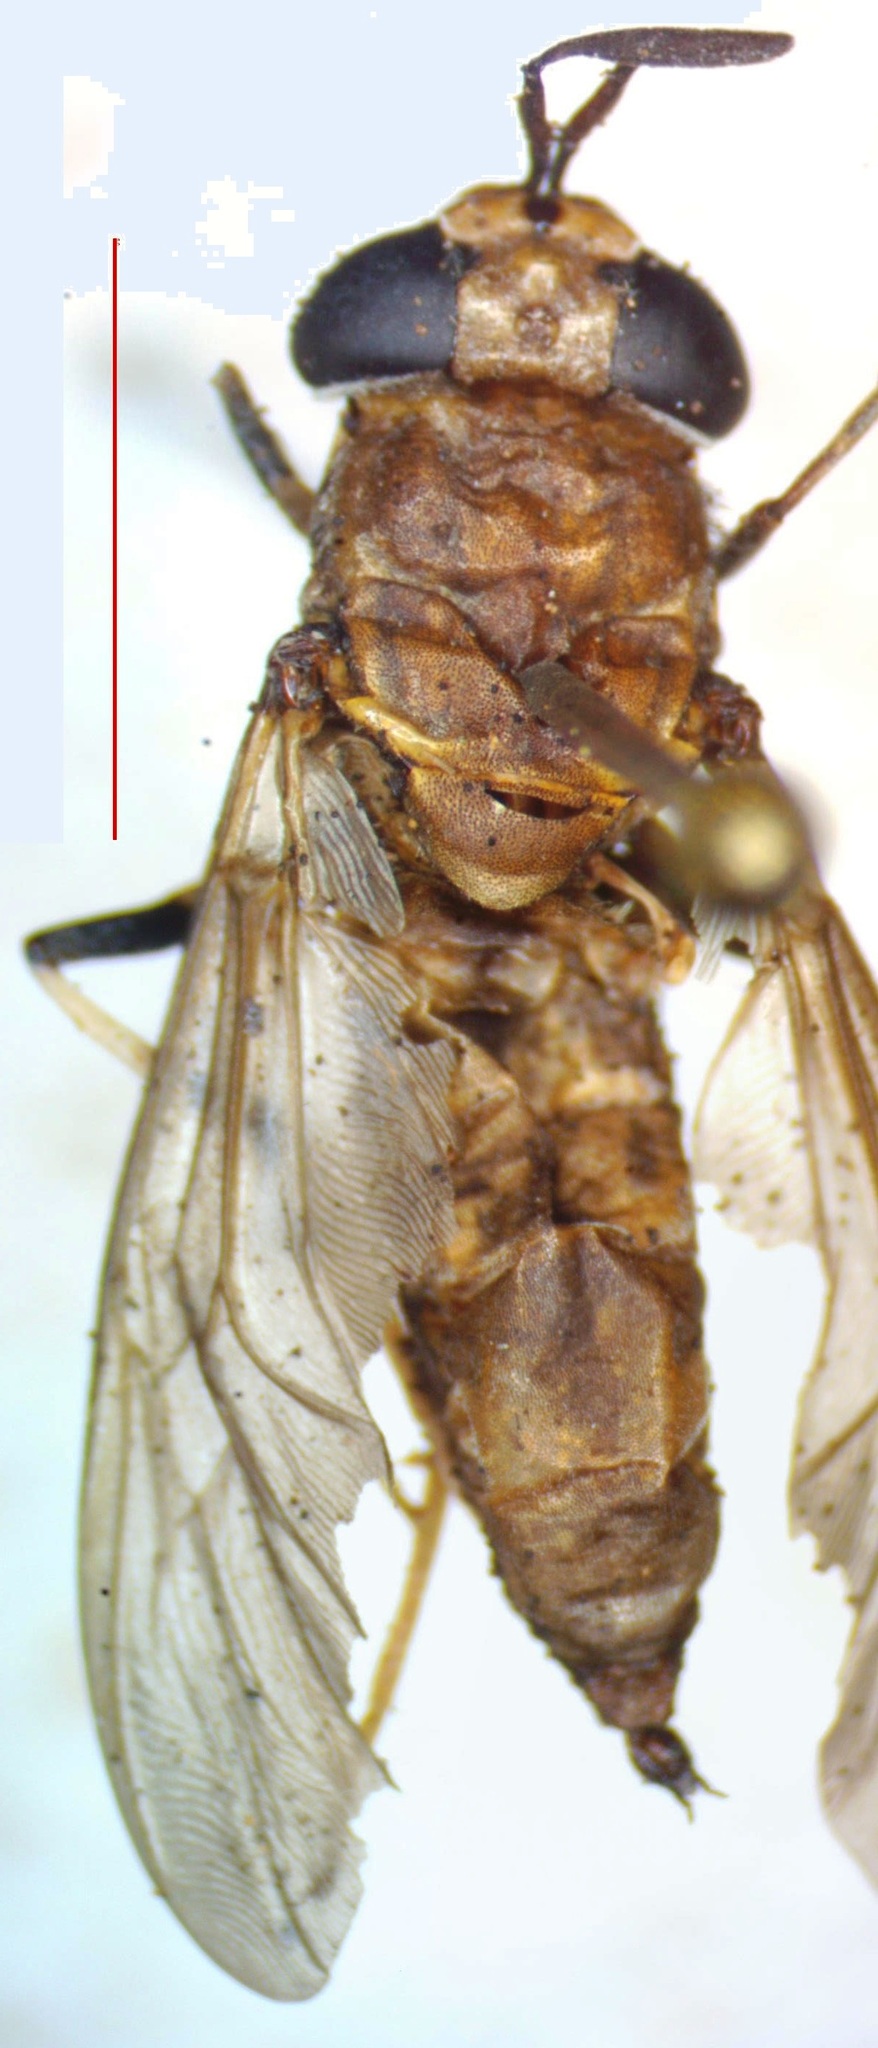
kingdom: Animalia
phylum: Arthropoda
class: Insecta
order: Diptera
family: Stratiomyidae
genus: Hermetia
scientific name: Hermetia illucens
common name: Black soldier fly
